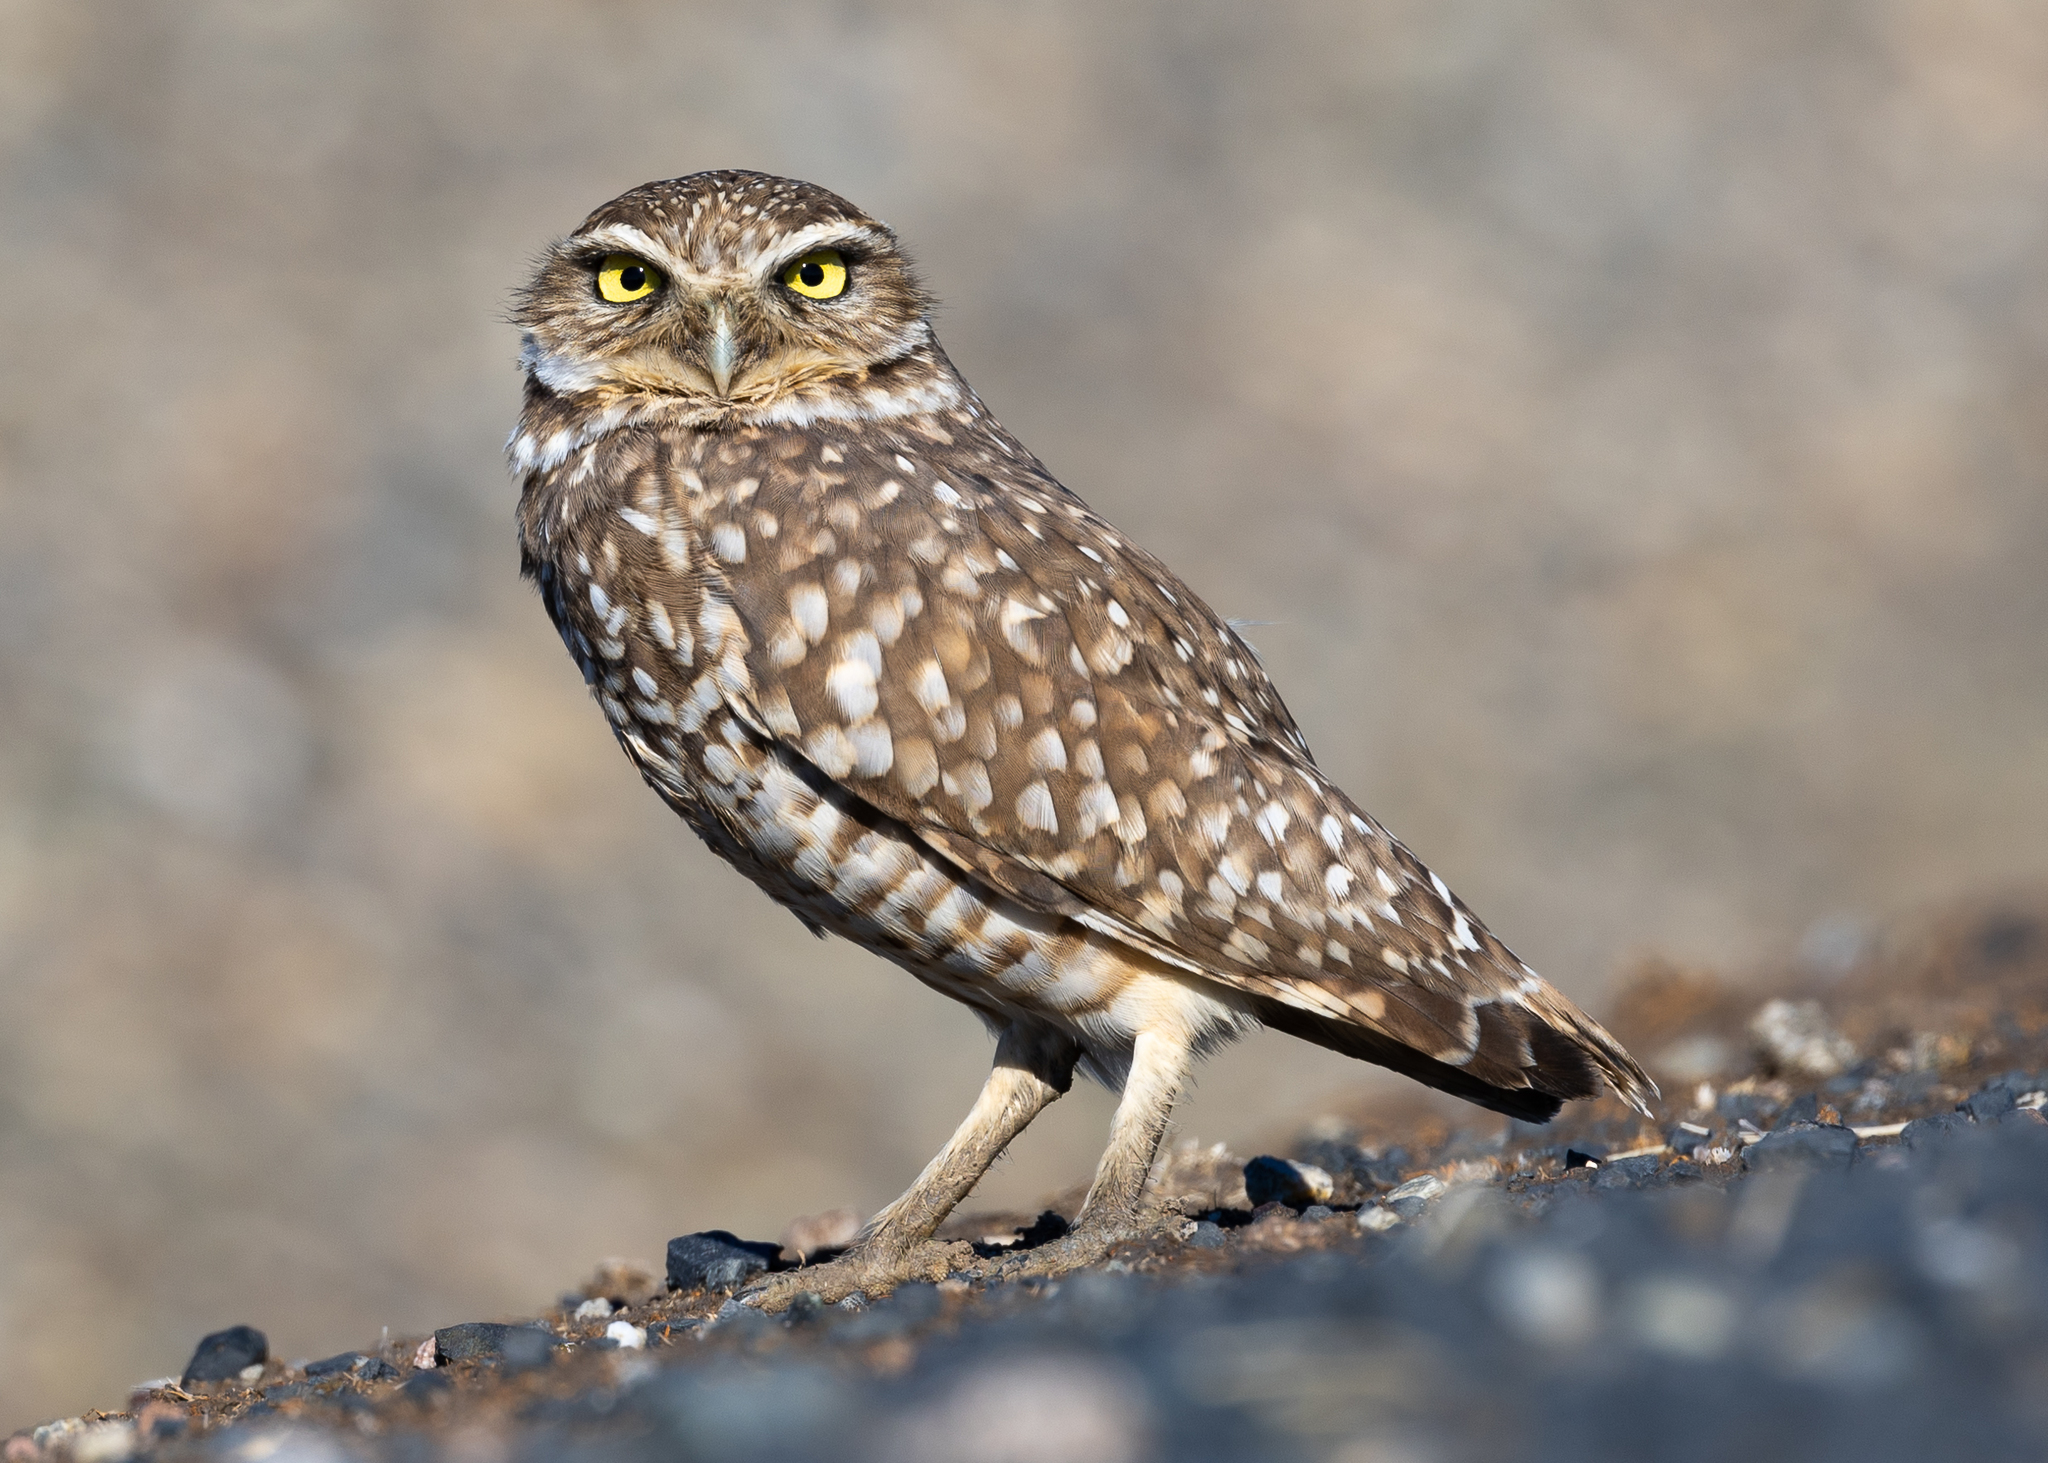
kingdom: Animalia
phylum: Chordata
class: Aves
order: Strigiformes
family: Strigidae
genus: Athene
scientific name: Athene cunicularia
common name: Burrowing owl
